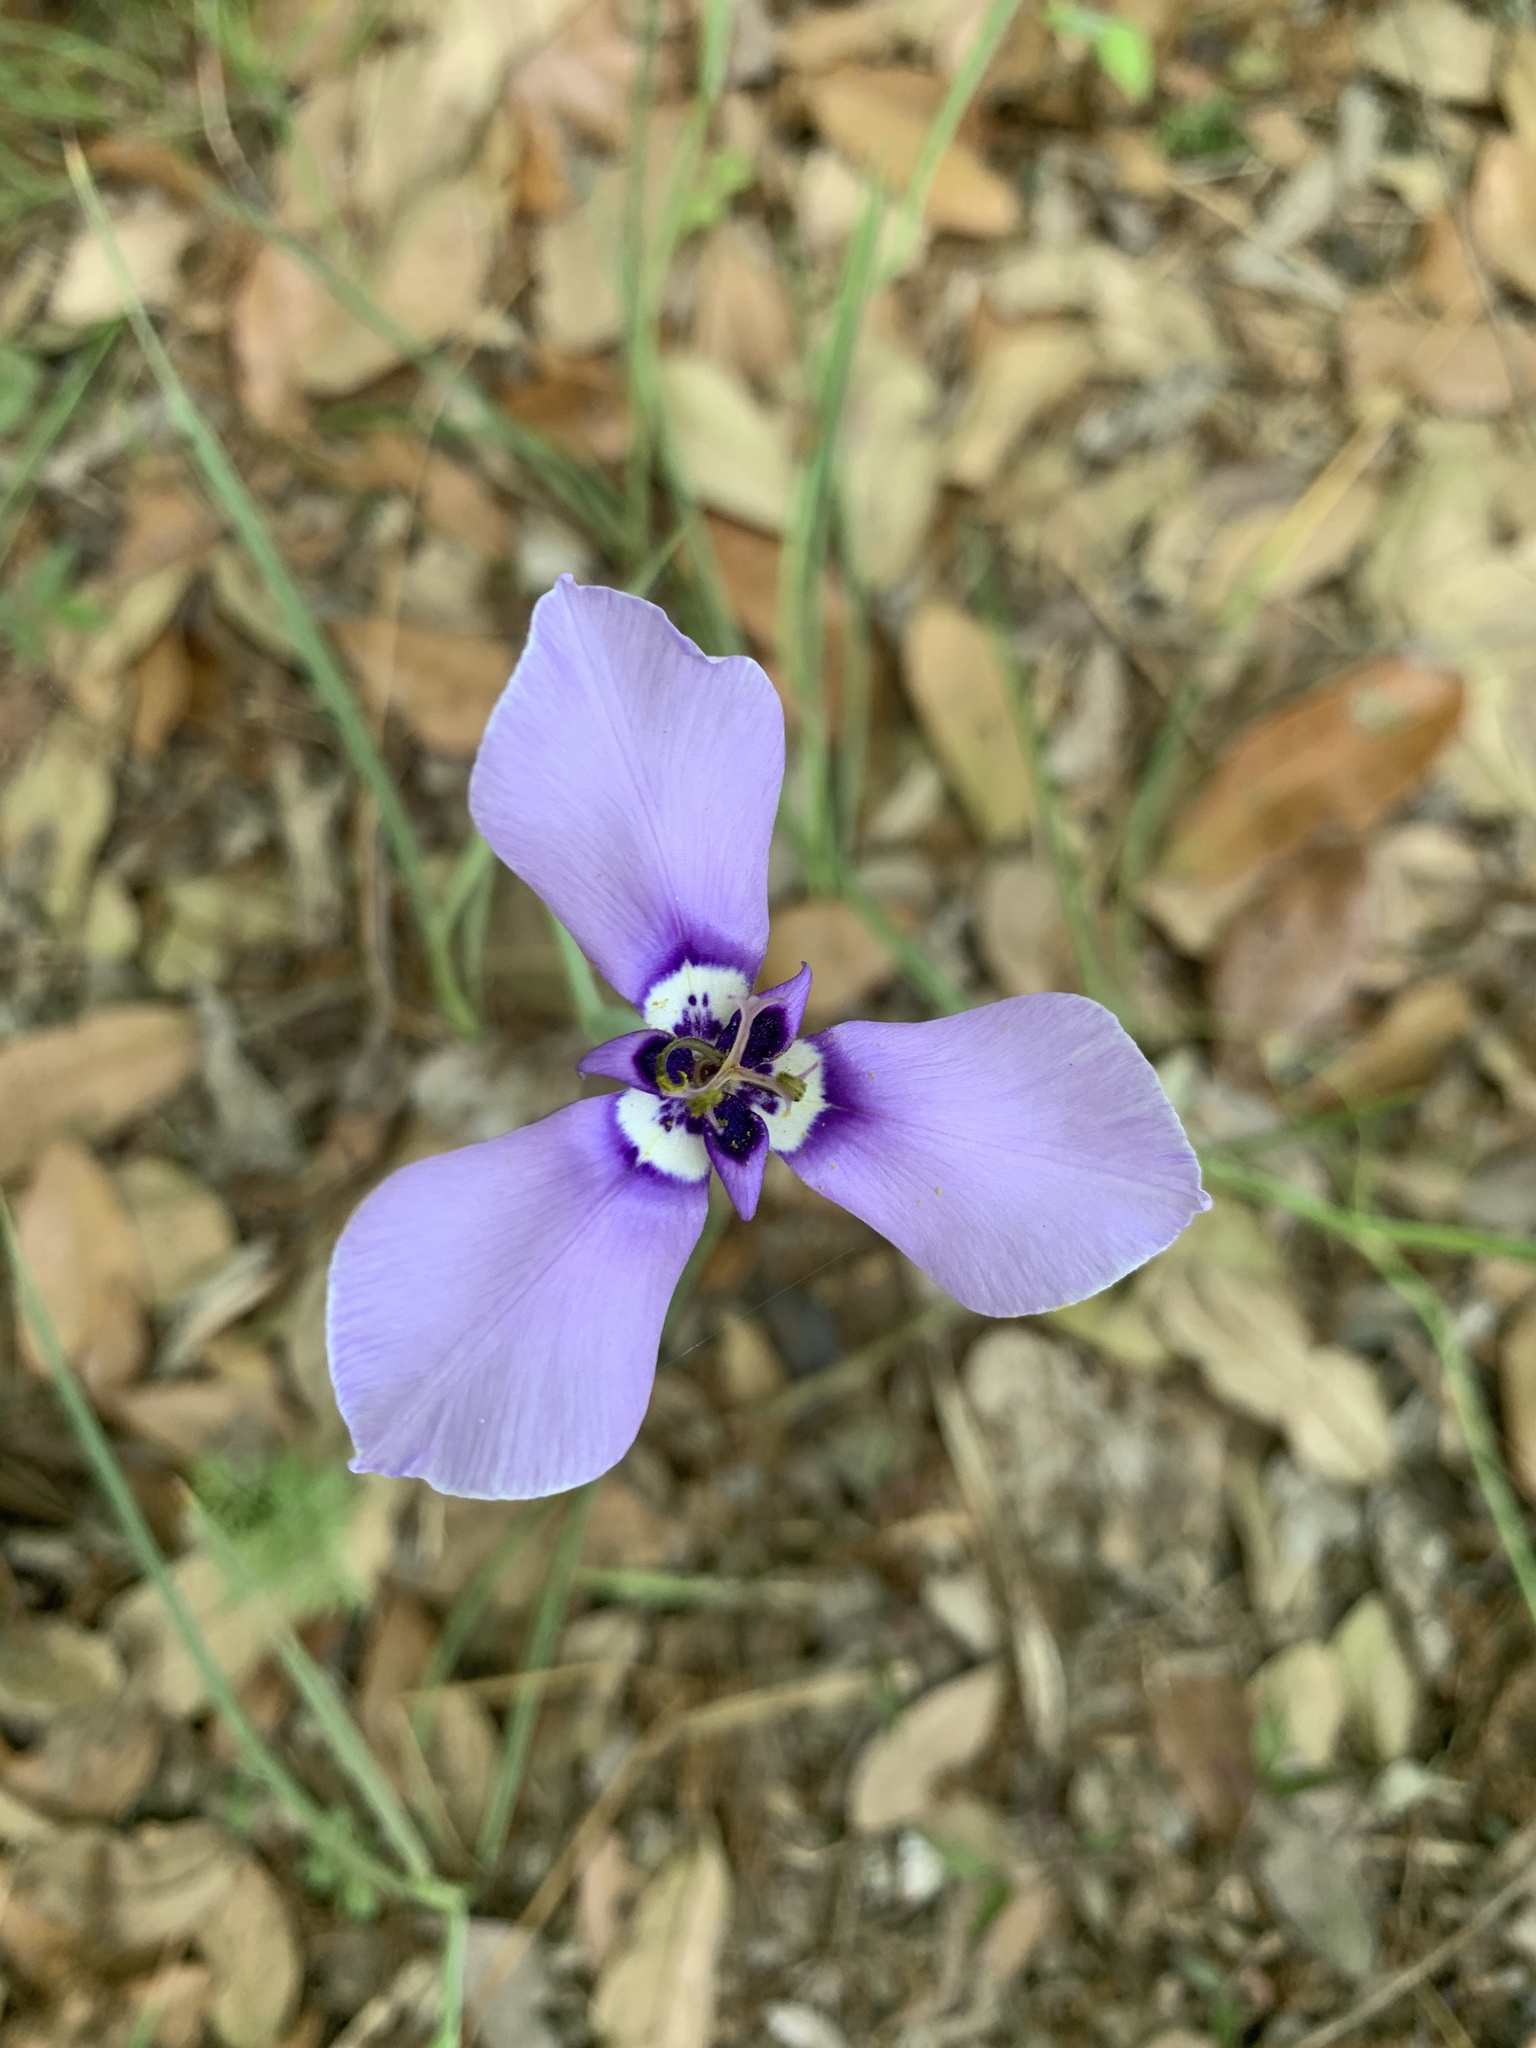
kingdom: Plantae
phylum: Tracheophyta
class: Liliopsida
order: Asparagales
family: Iridaceae
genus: Herbertia
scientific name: Herbertia lahue
